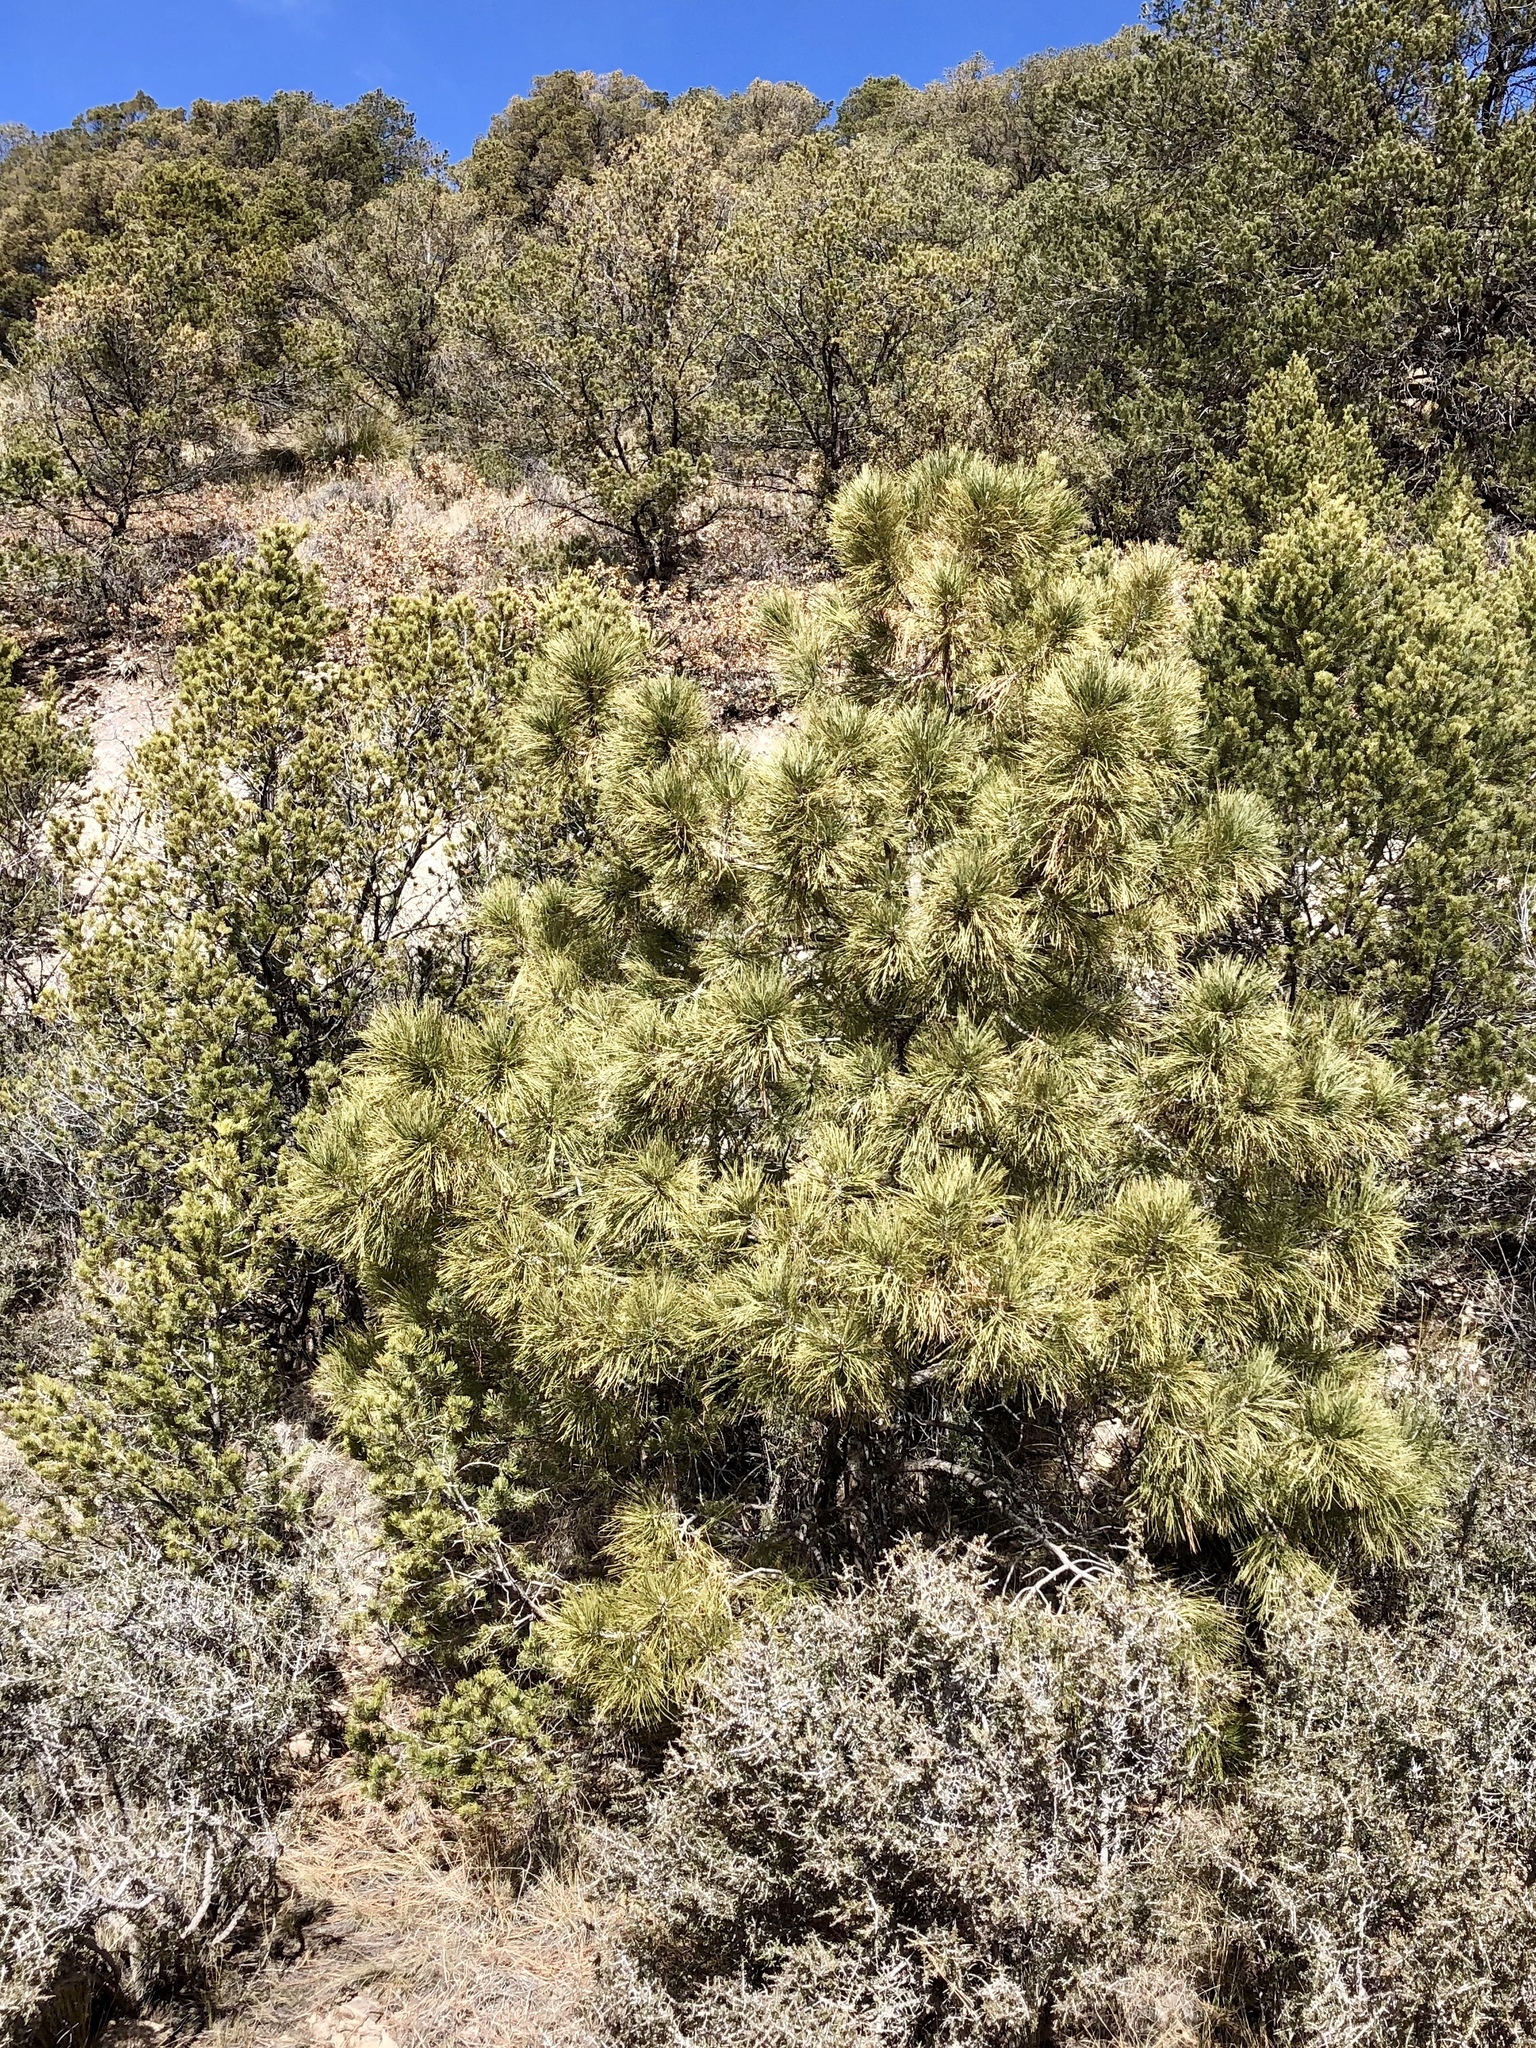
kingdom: Plantae
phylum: Tracheophyta
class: Pinopsida
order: Pinales
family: Pinaceae
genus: Pinus
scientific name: Pinus ponderosa
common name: Western yellow-pine
